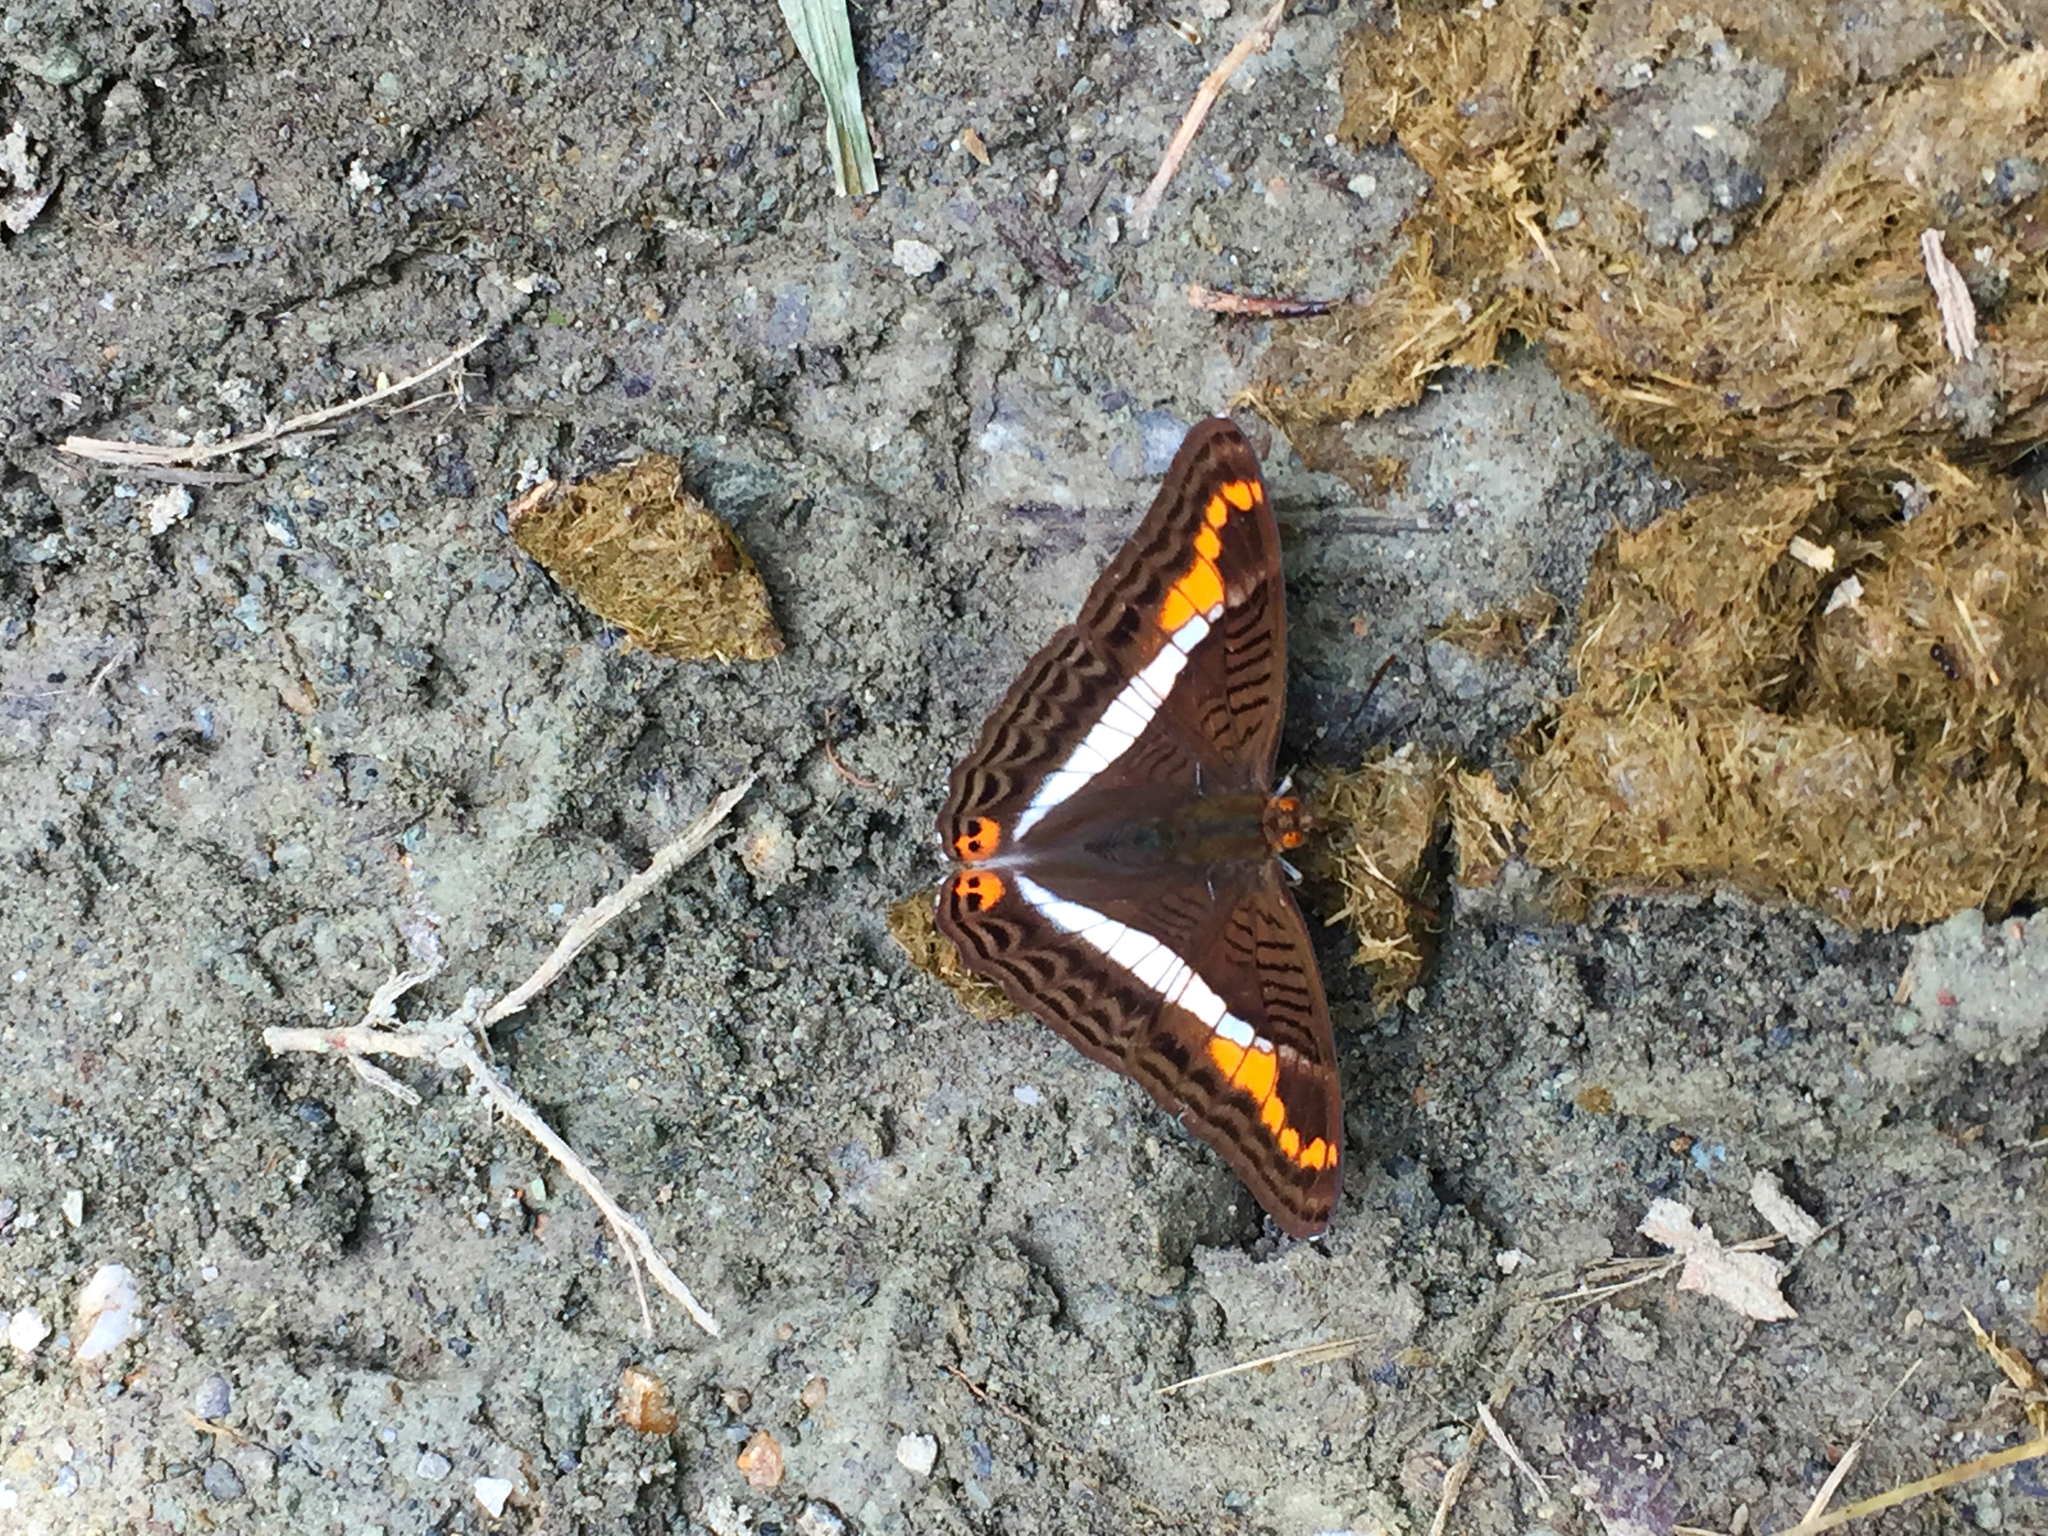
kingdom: Animalia
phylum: Arthropoda
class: Insecta
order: Lepidoptera
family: Nymphalidae
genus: Limenitis
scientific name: Limenitis corcyra
